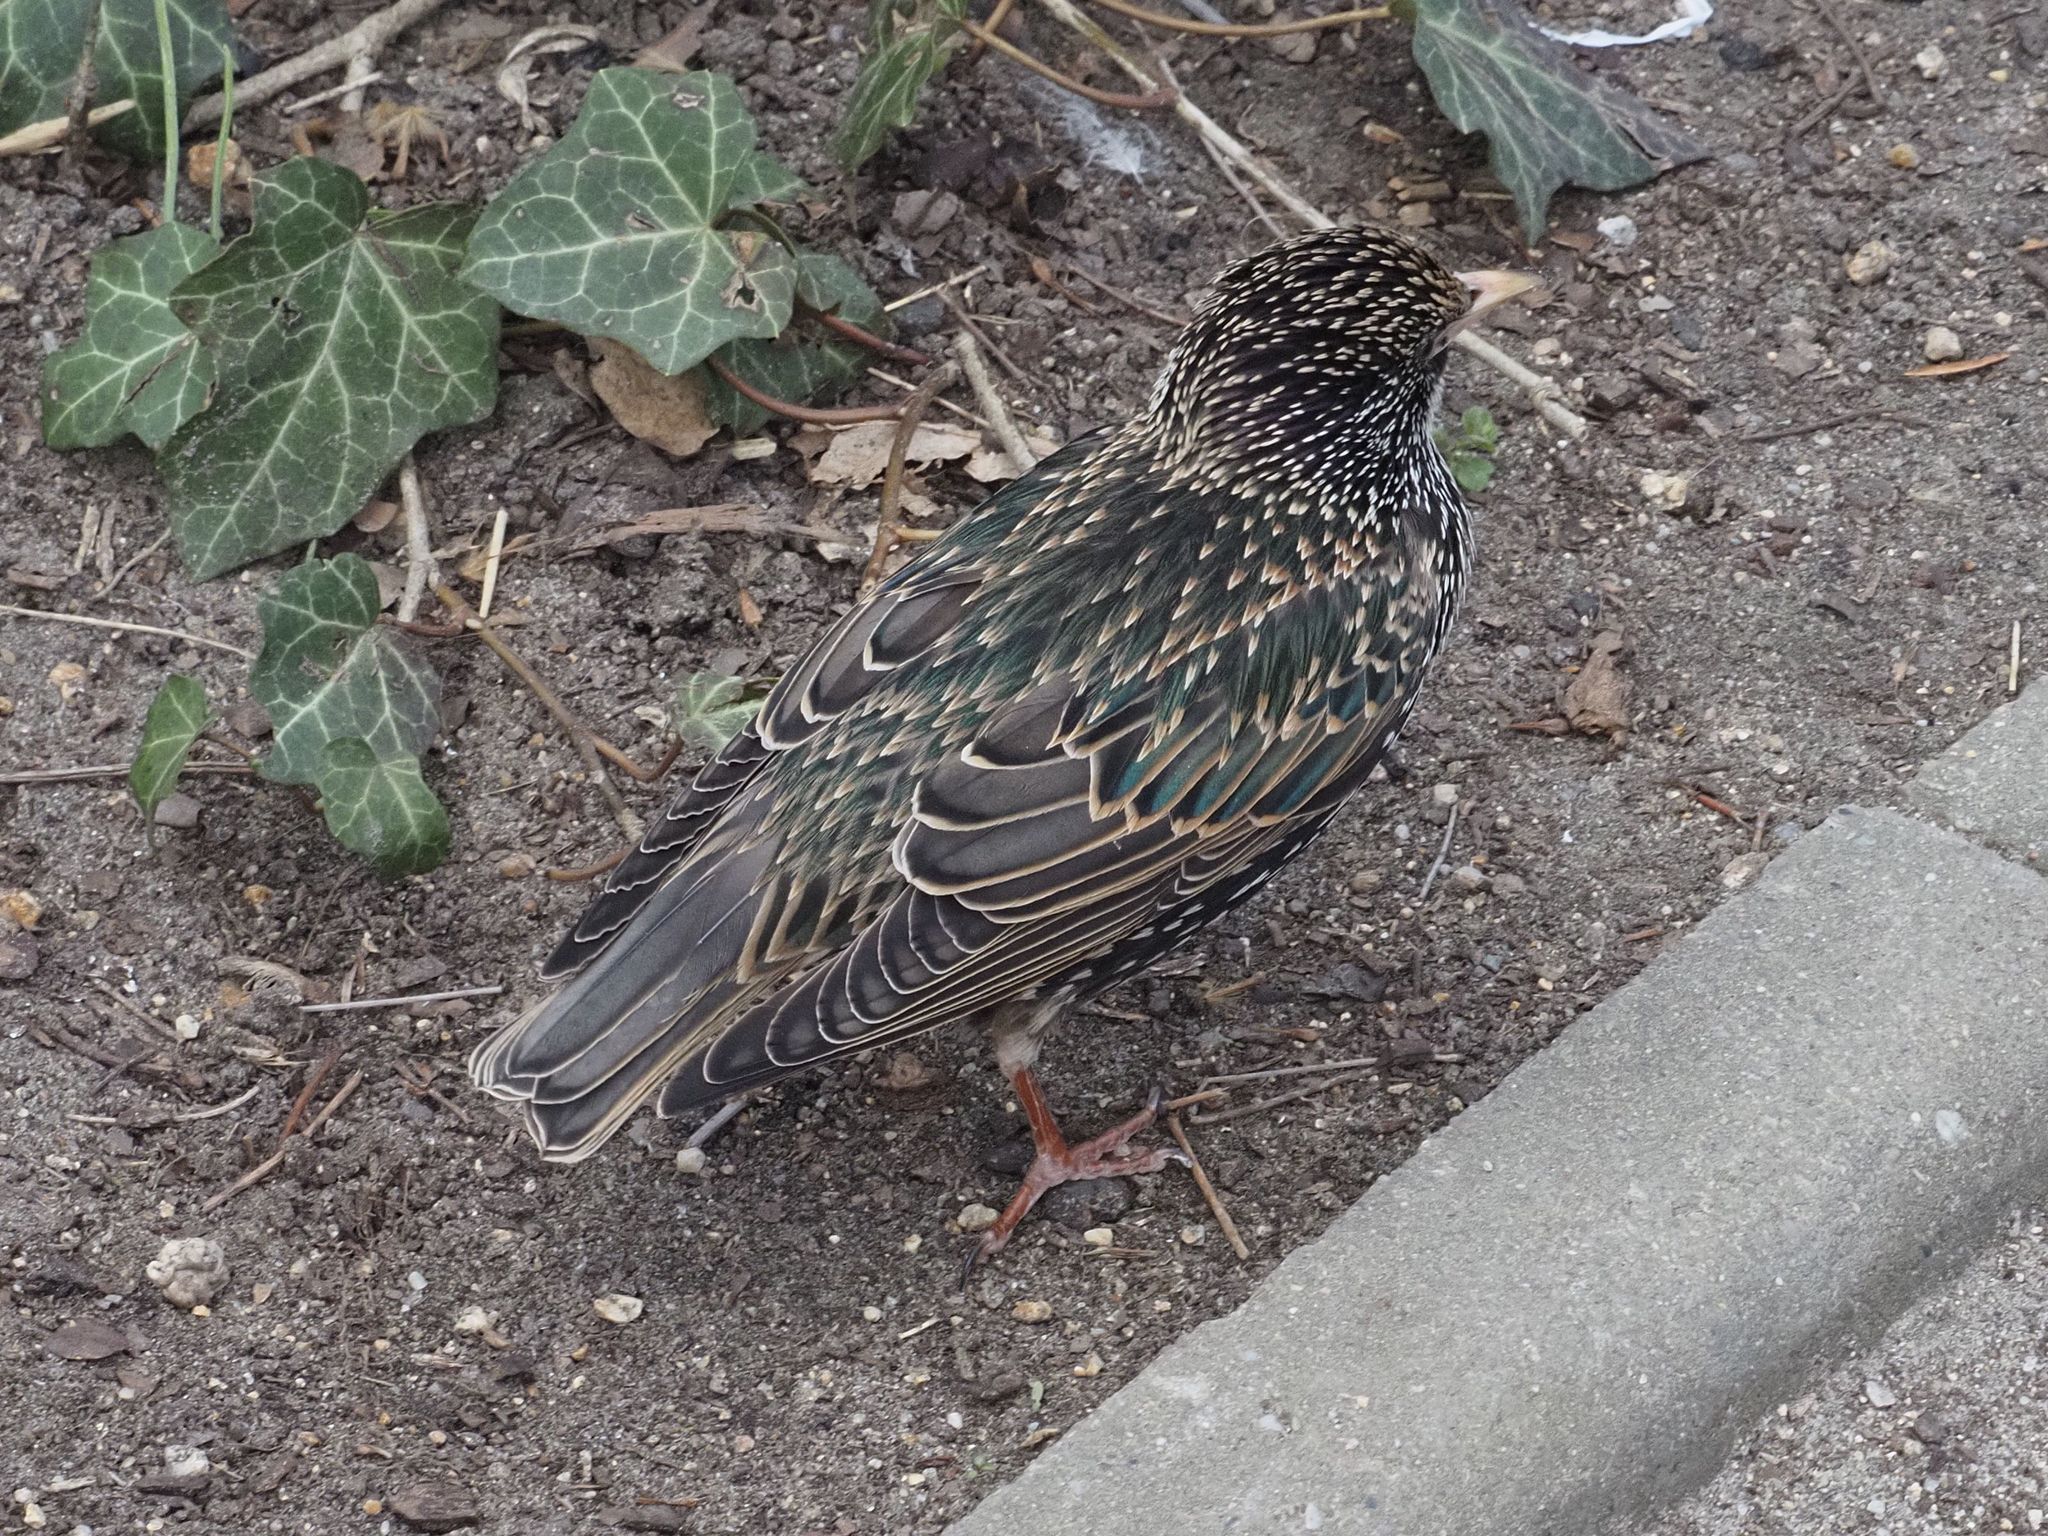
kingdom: Animalia
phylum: Chordata
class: Aves
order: Passeriformes
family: Sturnidae
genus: Sturnus
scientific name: Sturnus vulgaris
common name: Common starling
